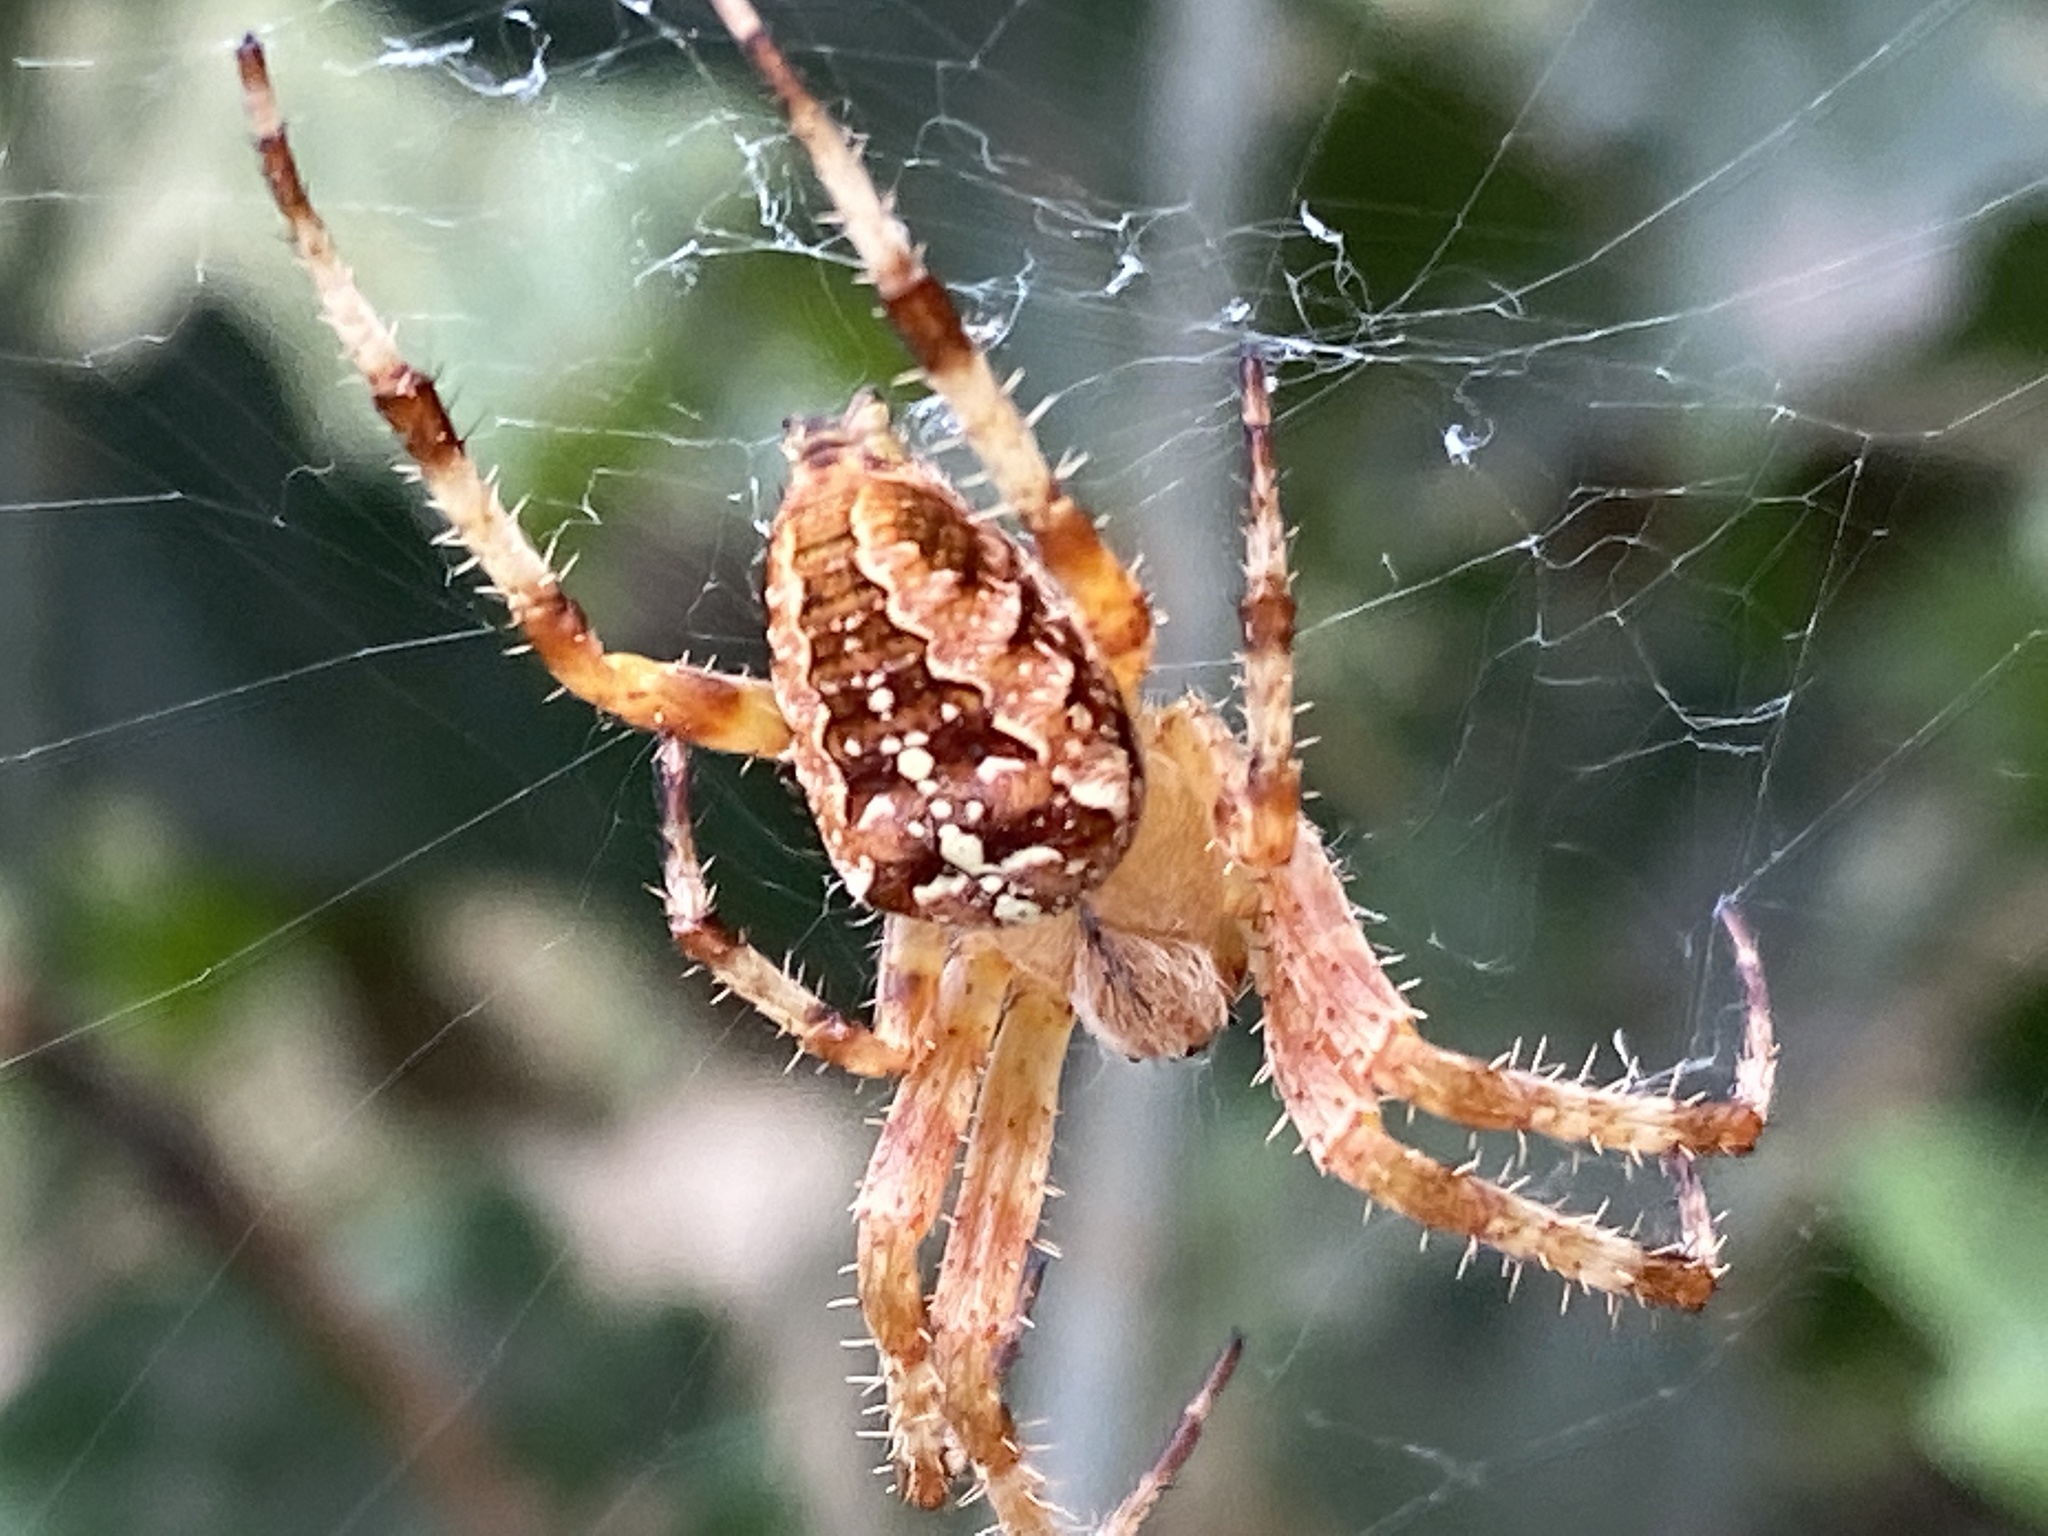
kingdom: Animalia
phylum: Arthropoda
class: Arachnida
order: Araneae
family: Araneidae
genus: Araneus
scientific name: Araneus diadematus
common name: Cross orbweaver
